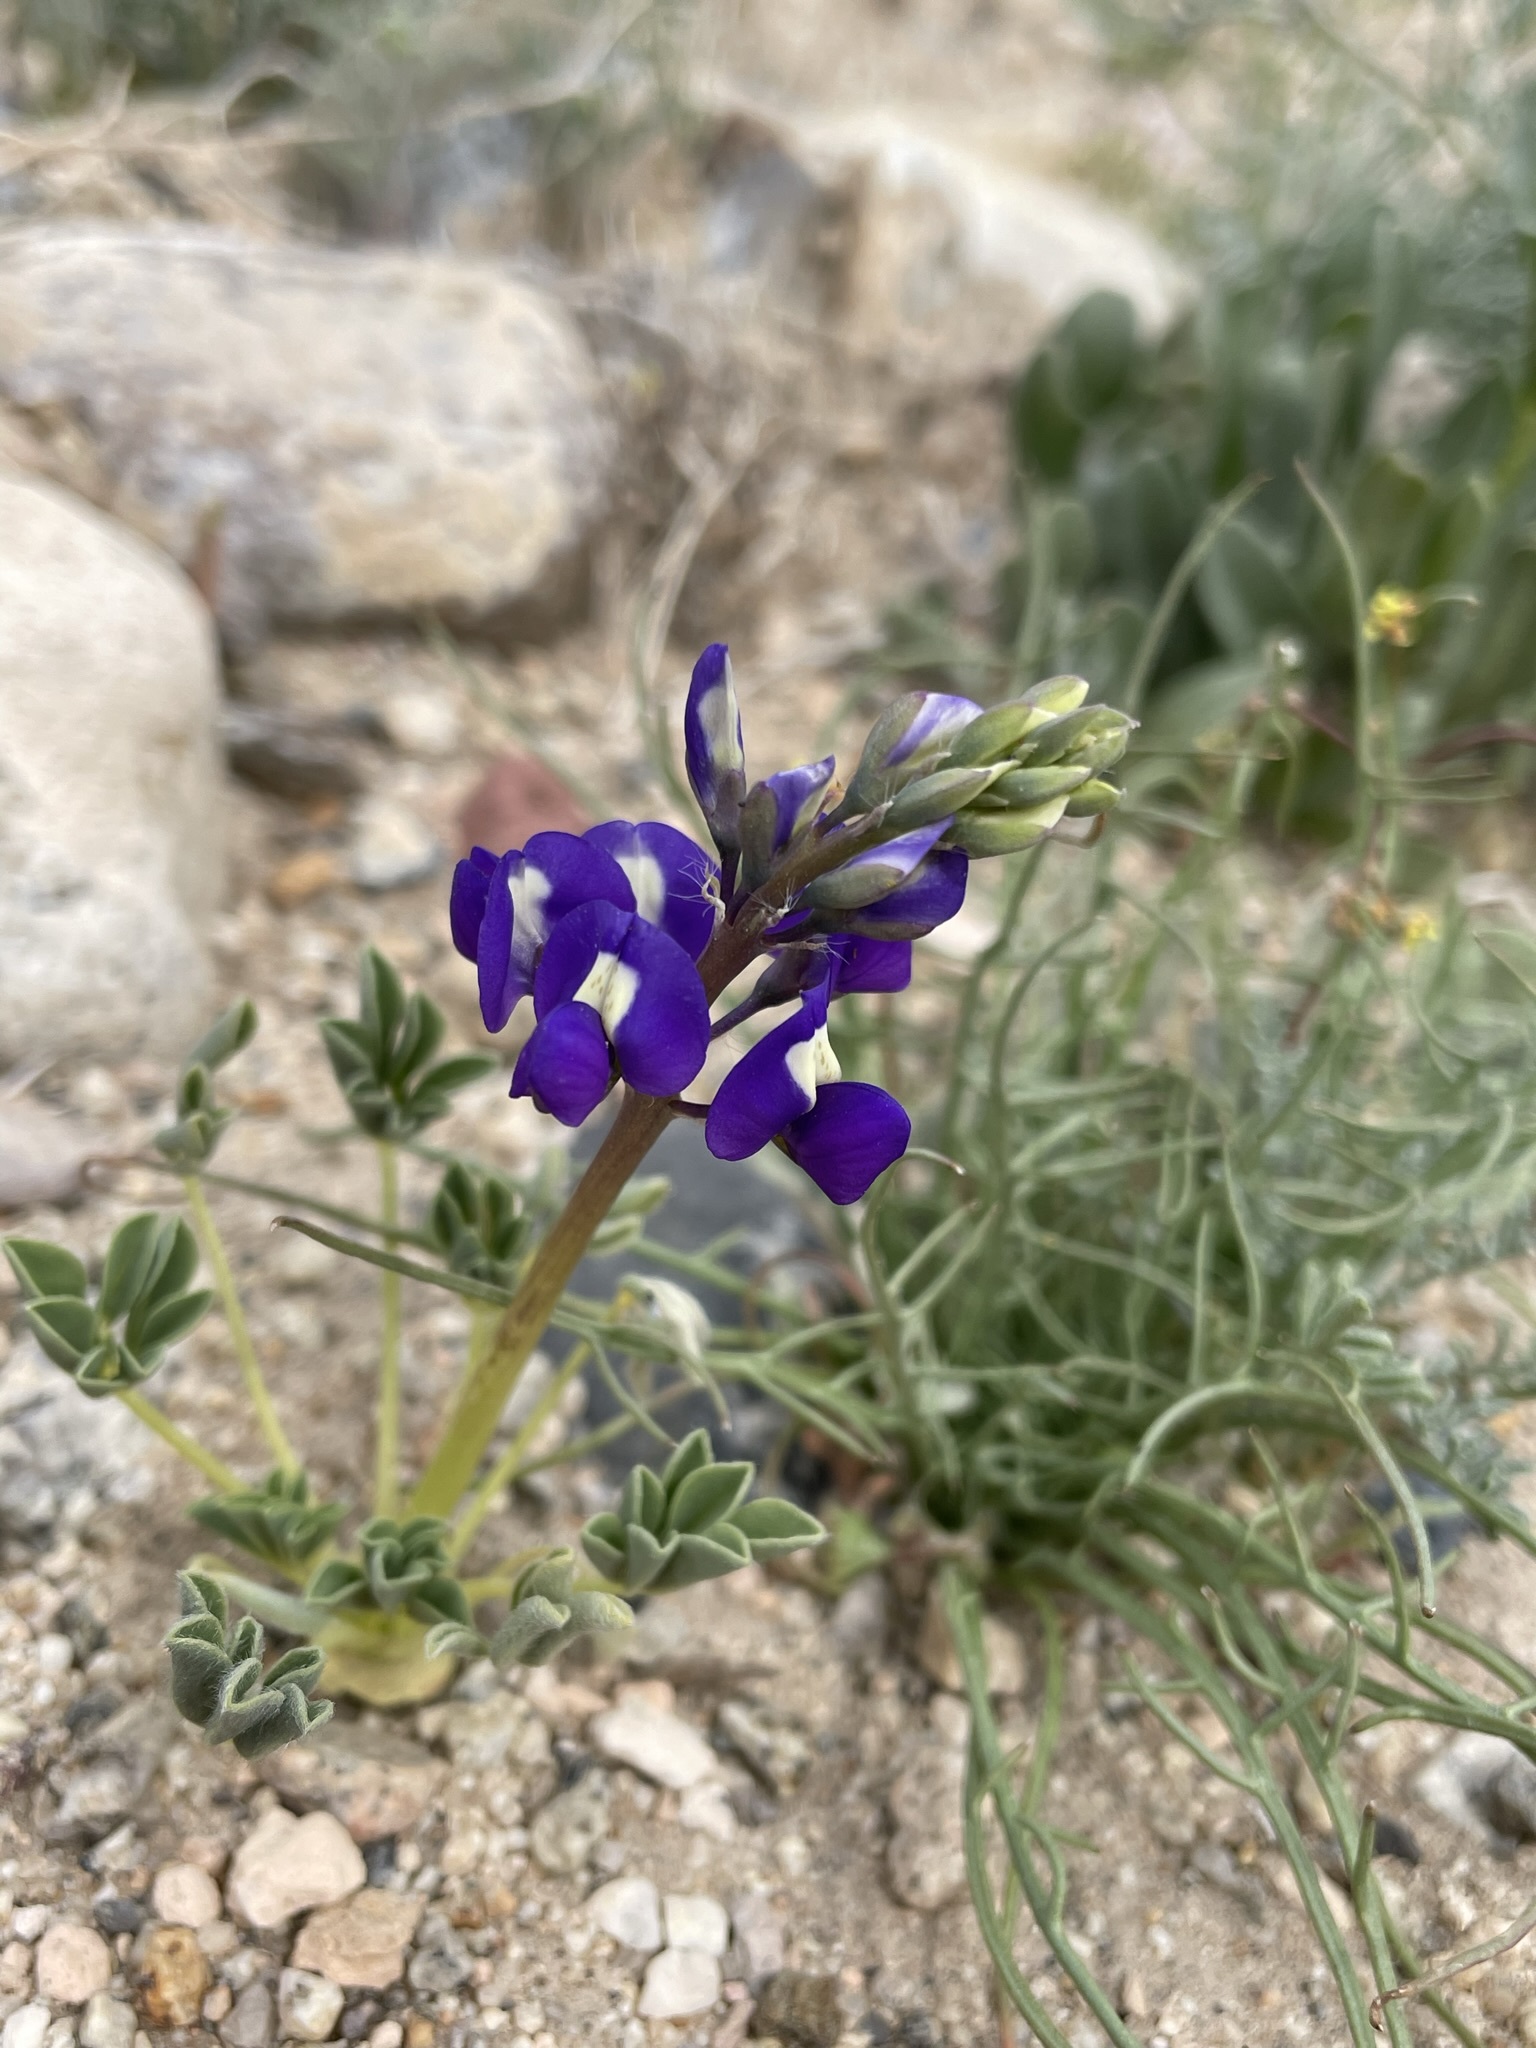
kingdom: Plantae
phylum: Tracheophyta
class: Magnoliopsida
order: Fabales
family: Fabaceae
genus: Lupinus
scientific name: Lupinus
